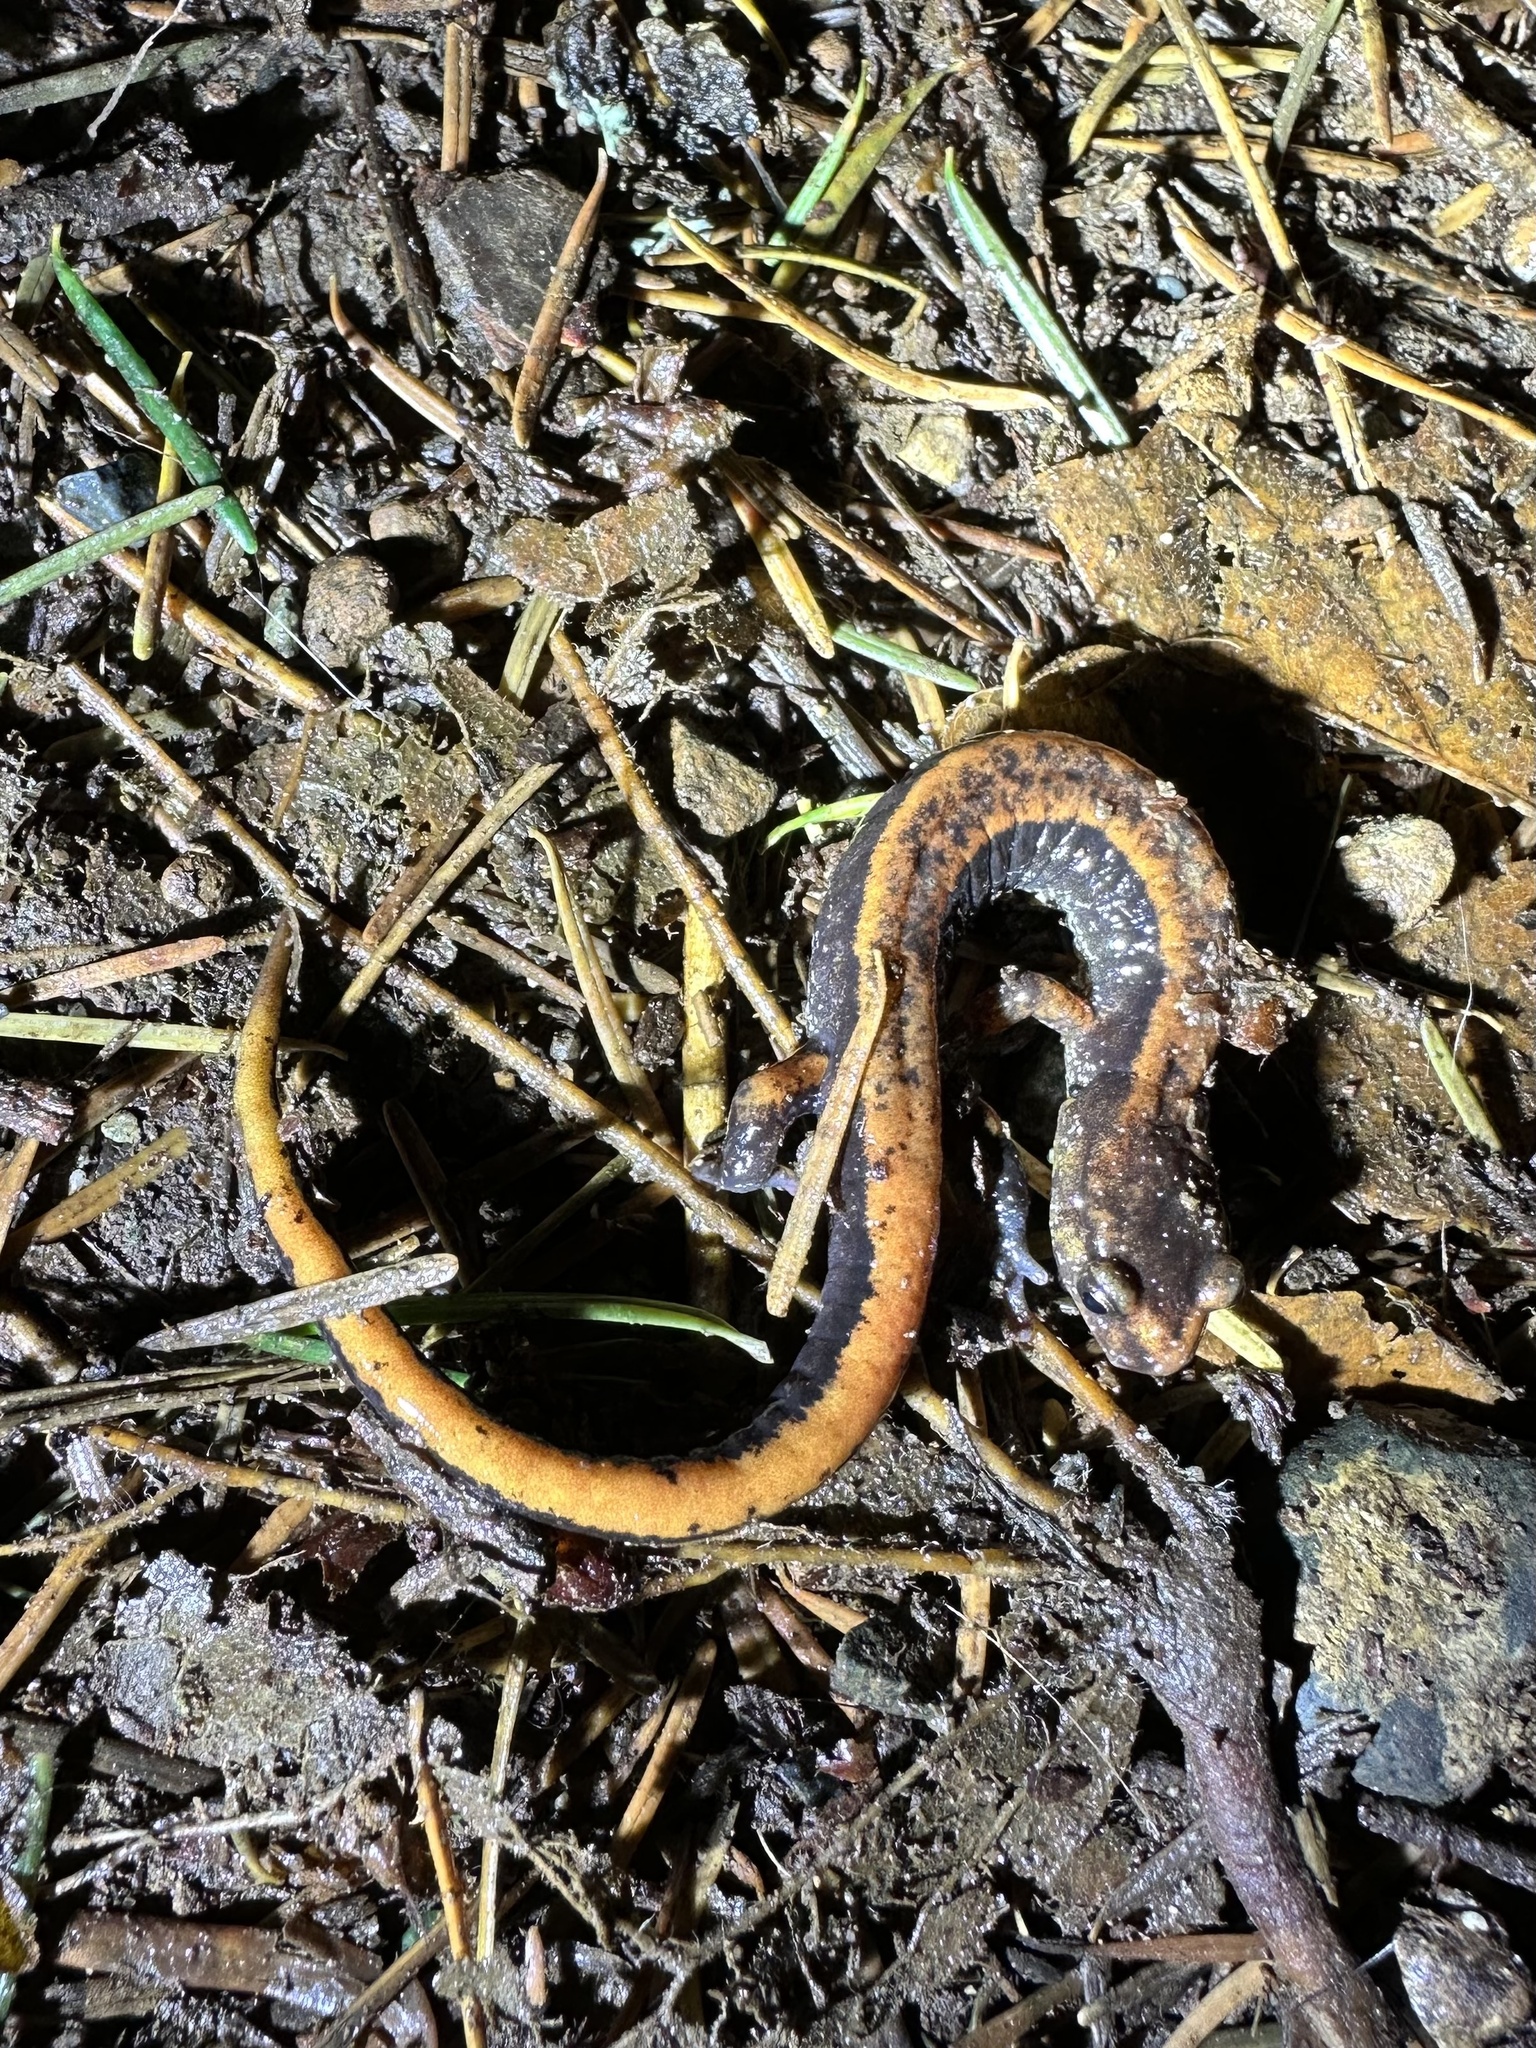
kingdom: Animalia
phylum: Chordata
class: Amphibia
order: Caudata
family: Plethodontidae
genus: Plethodon
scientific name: Plethodon vehiculum
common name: Western red-backed salamander
